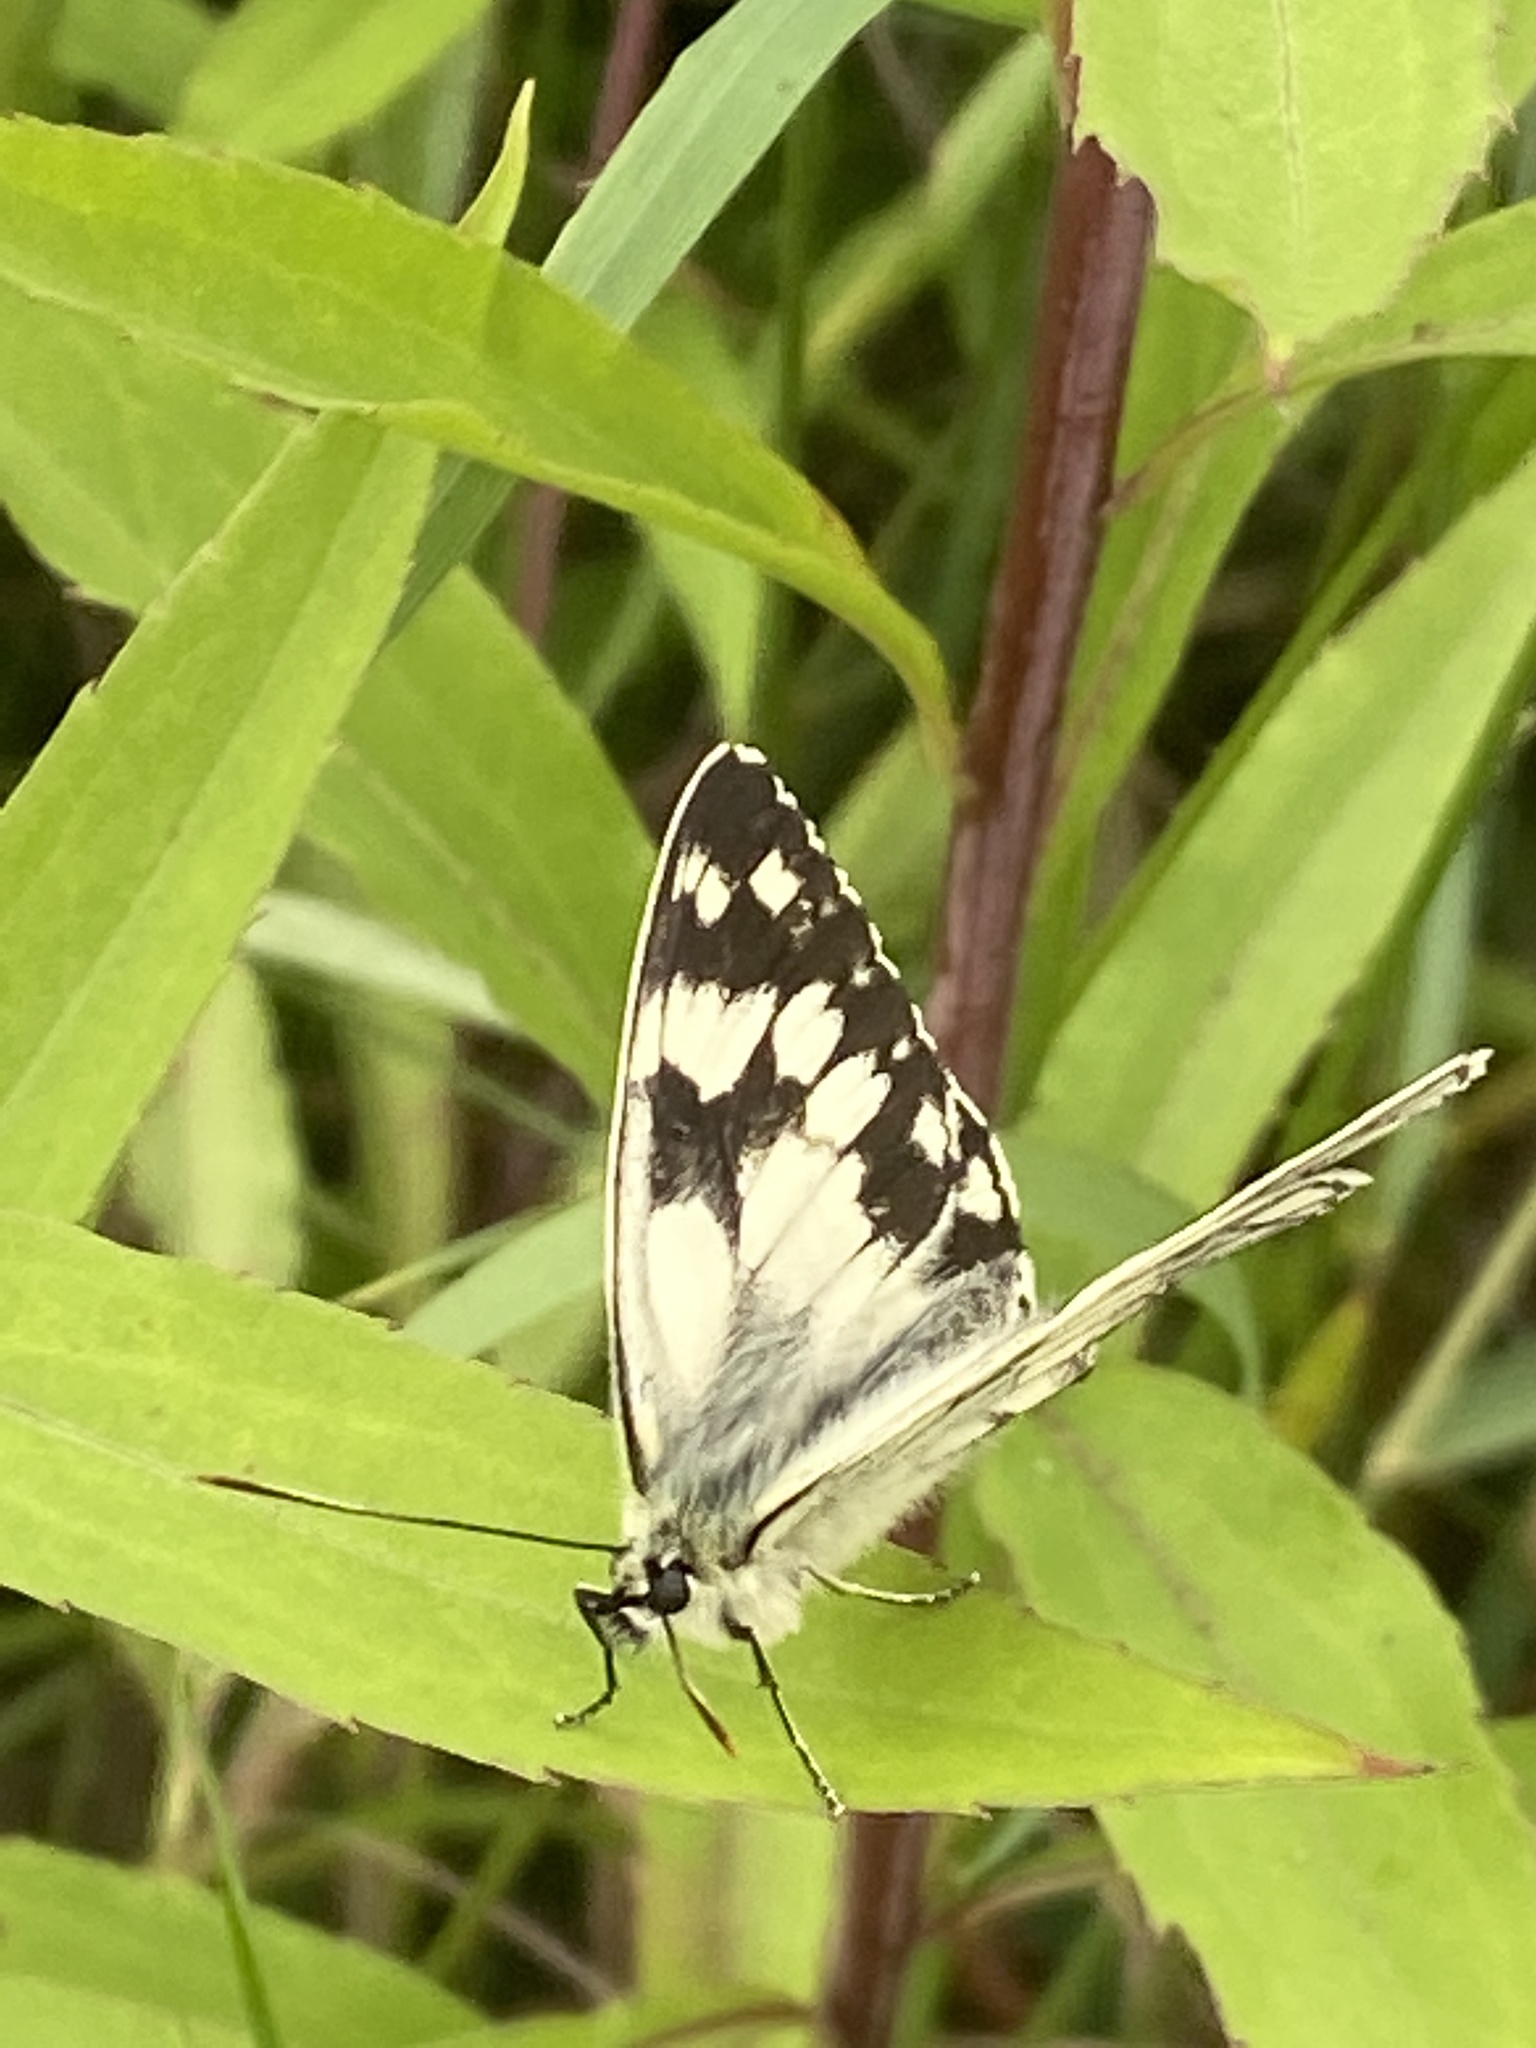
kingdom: Animalia
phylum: Arthropoda
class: Insecta
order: Lepidoptera
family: Nymphalidae
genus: Melanargia
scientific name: Melanargia galathea
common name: Marbled white
